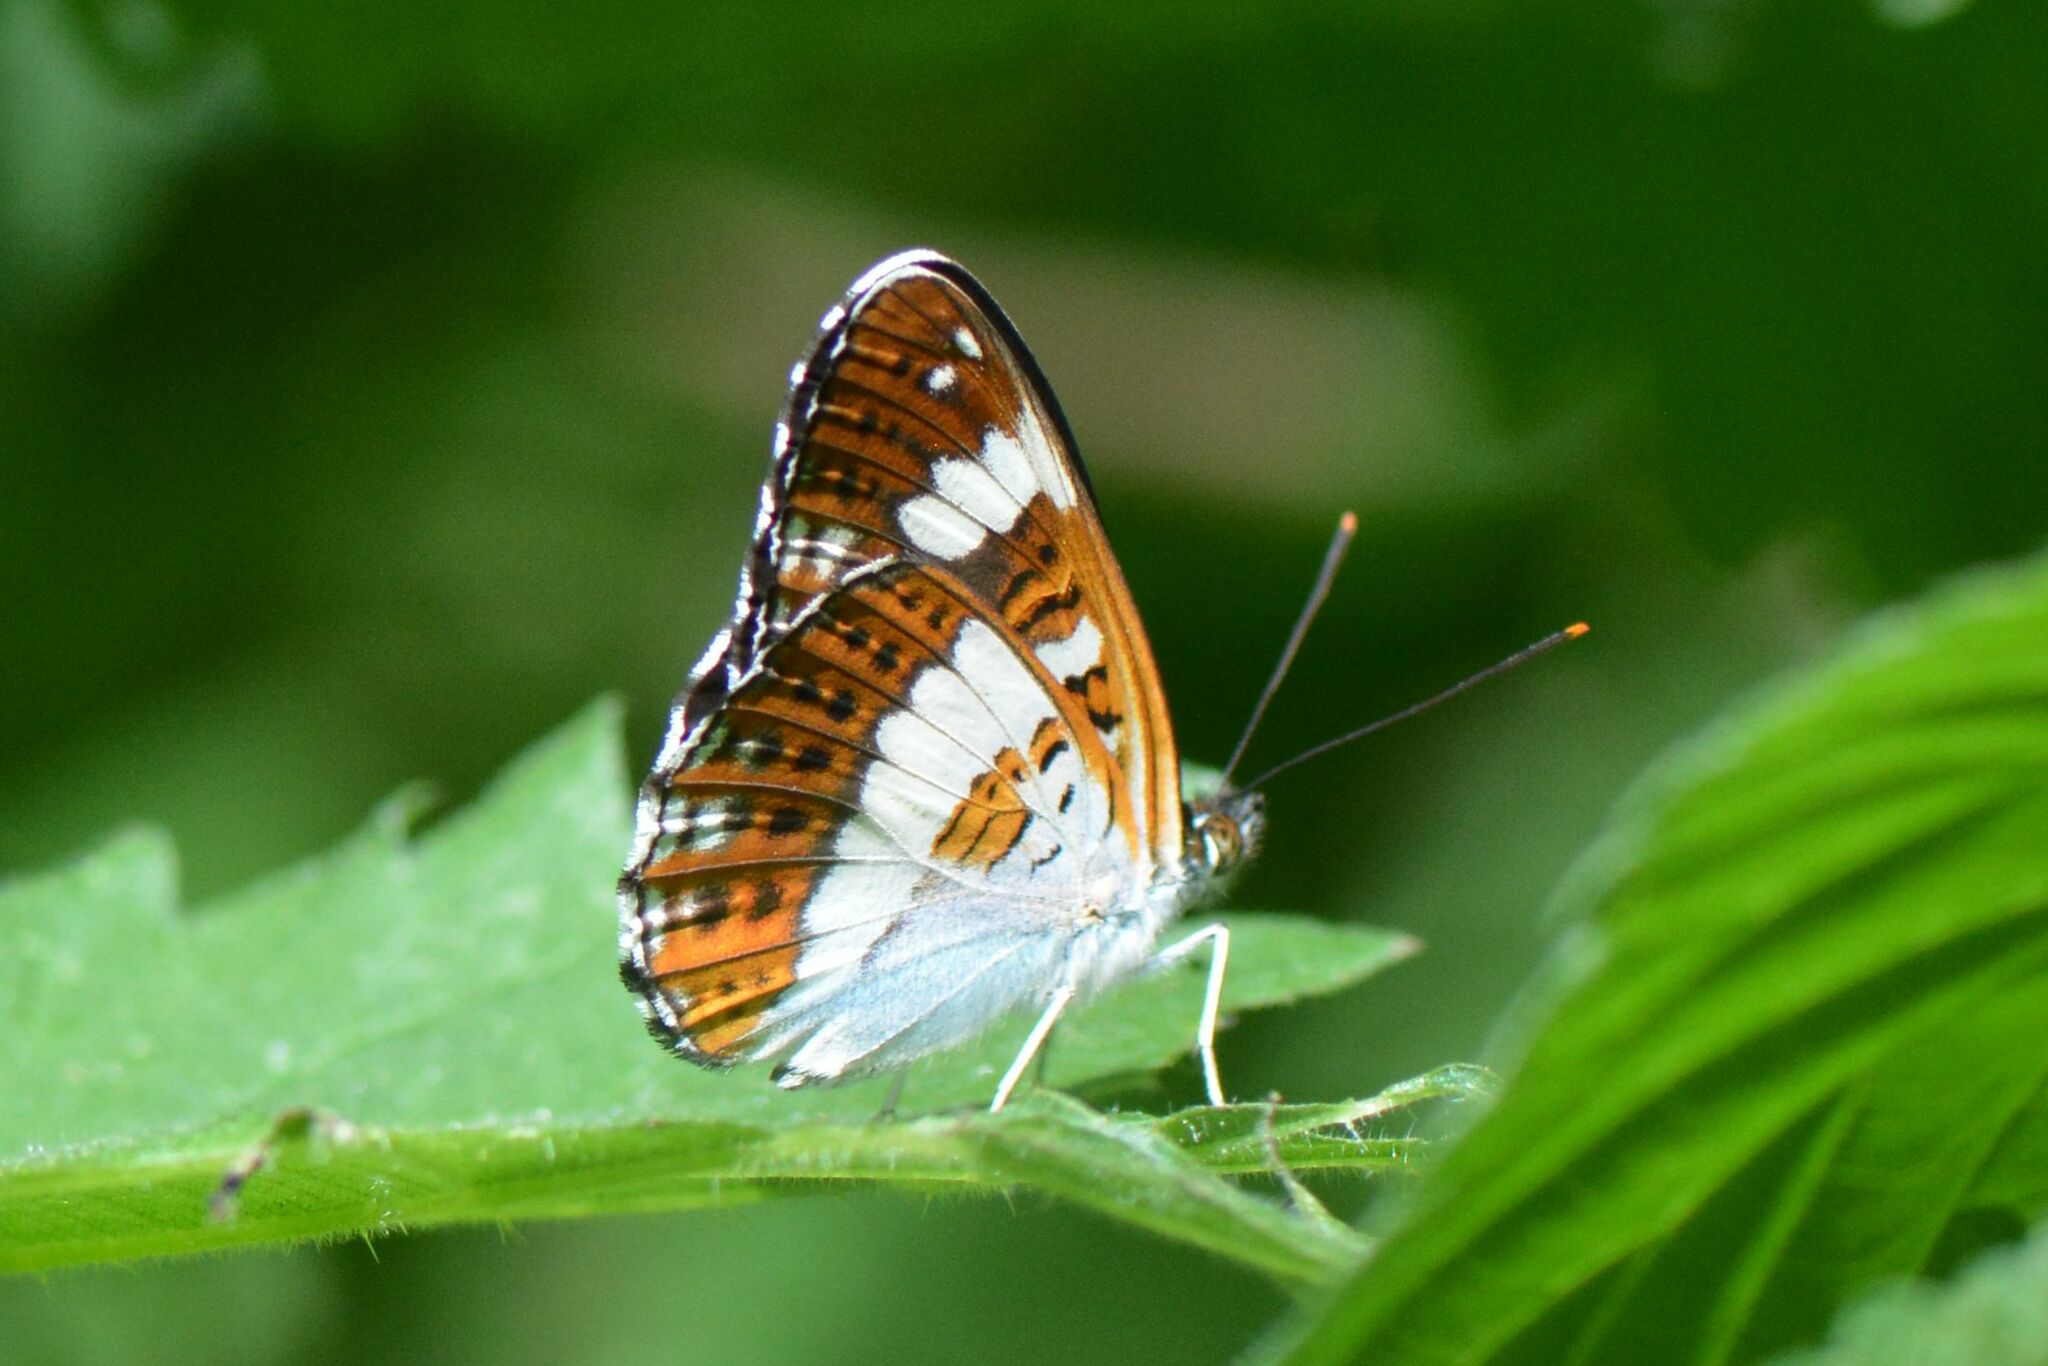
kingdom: Animalia
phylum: Arthropoda
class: Insecta
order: Lepidoptera
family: Nymphalidae
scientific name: Nymphalidae
